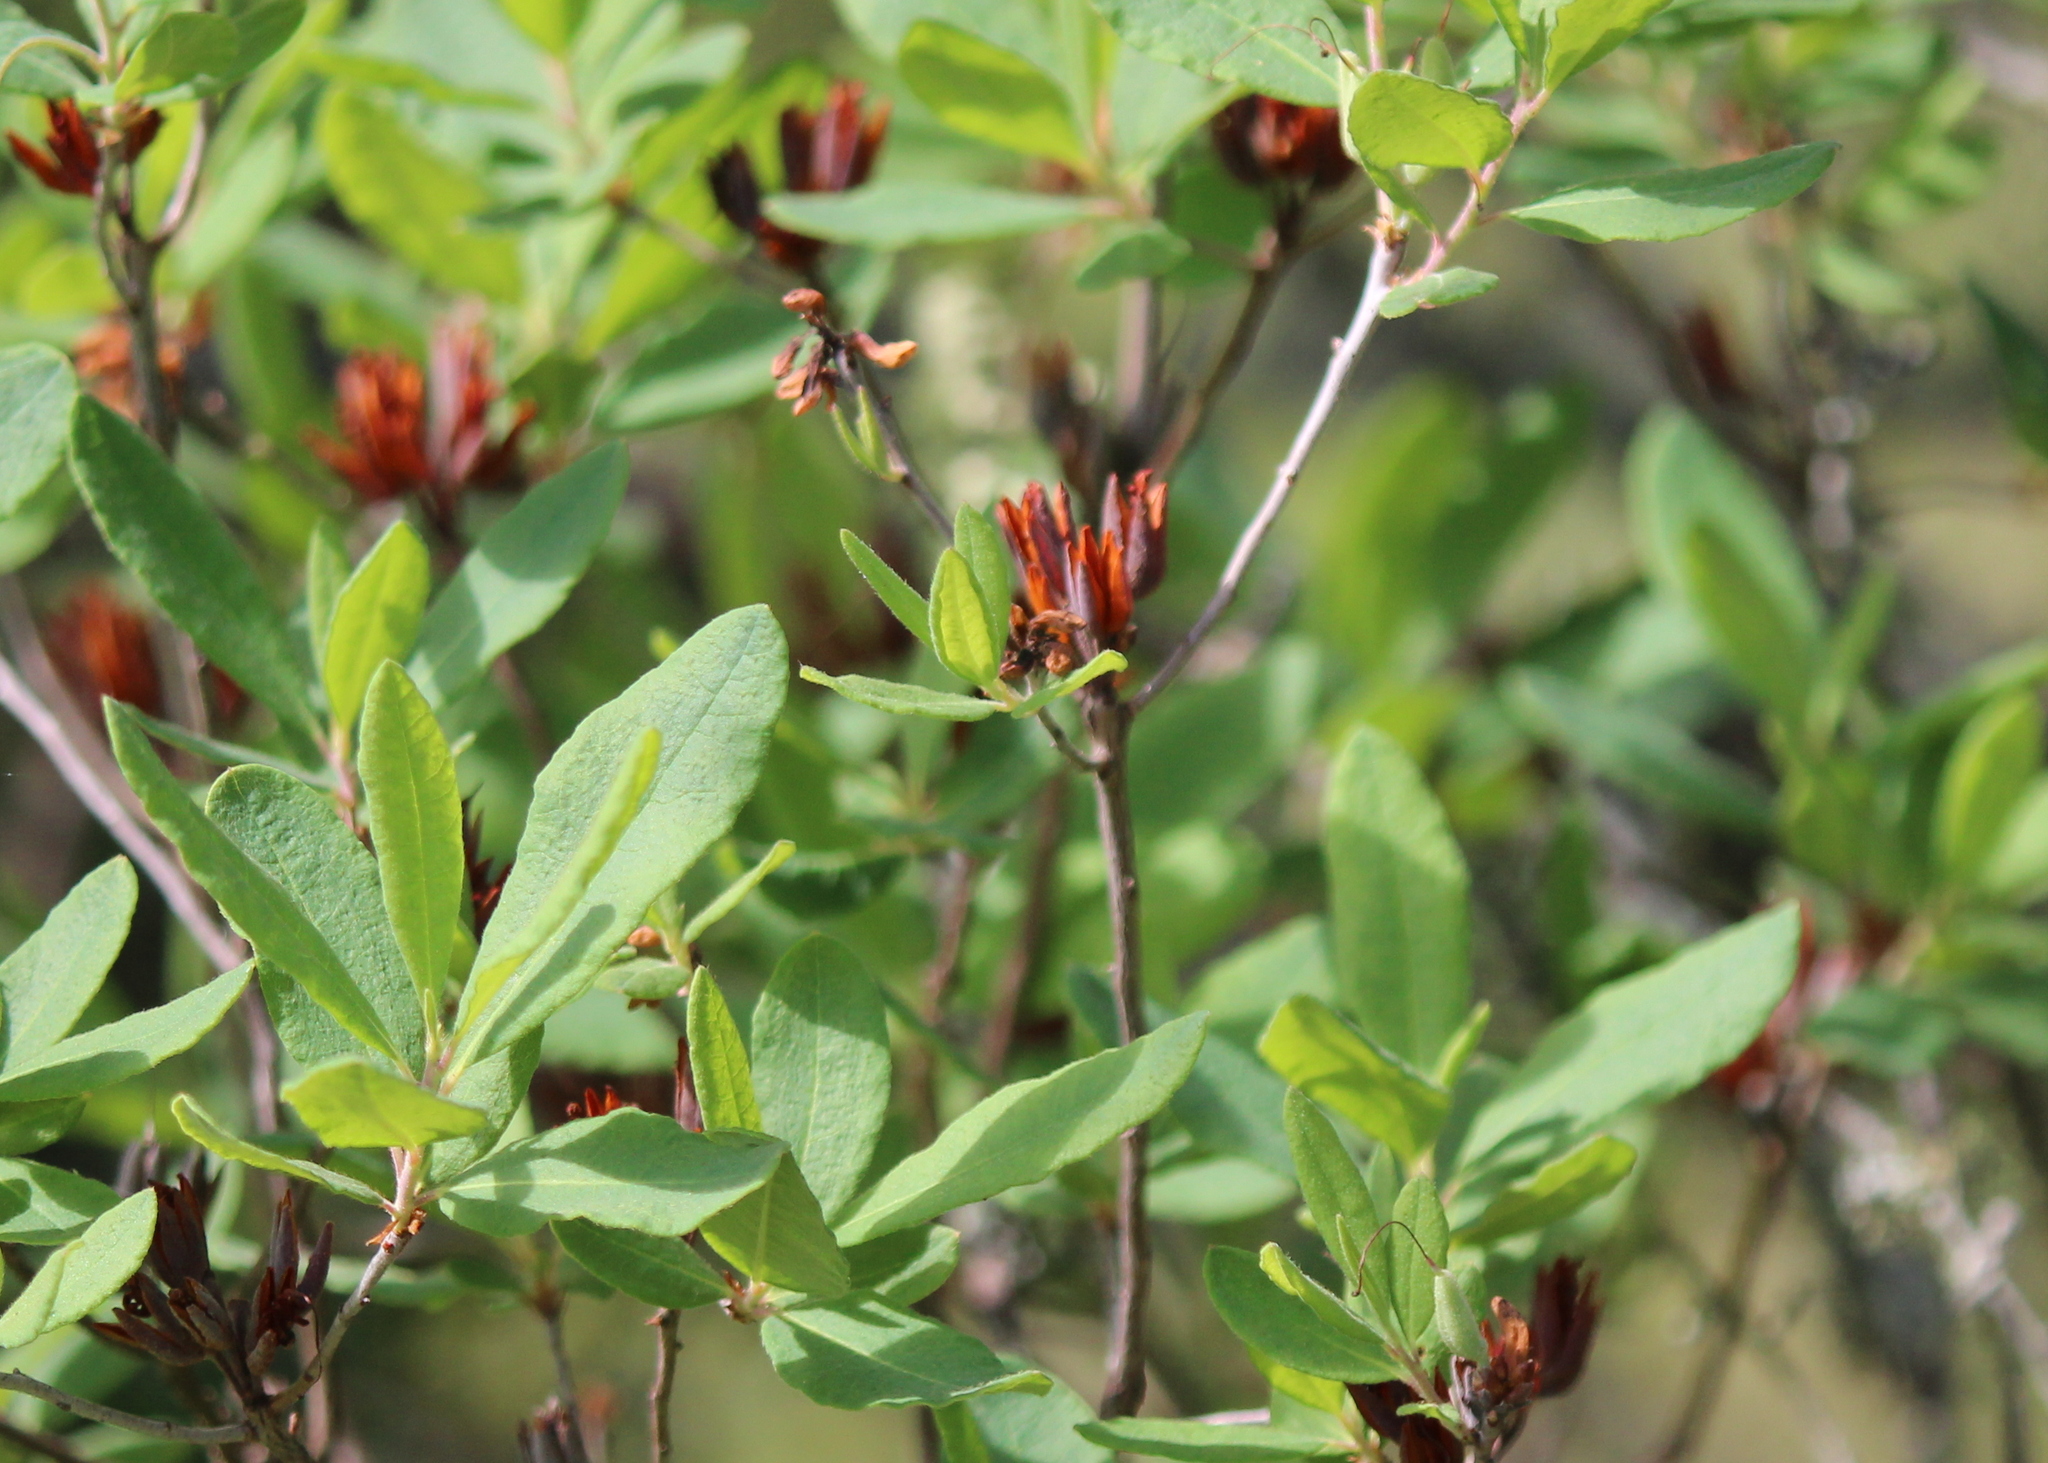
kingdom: Plantae
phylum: Tracheophyta
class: Magnoliopsida
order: Ericales
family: Ericaceae
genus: Rhododendron
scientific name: Rhododendron canadense
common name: Rhodora
